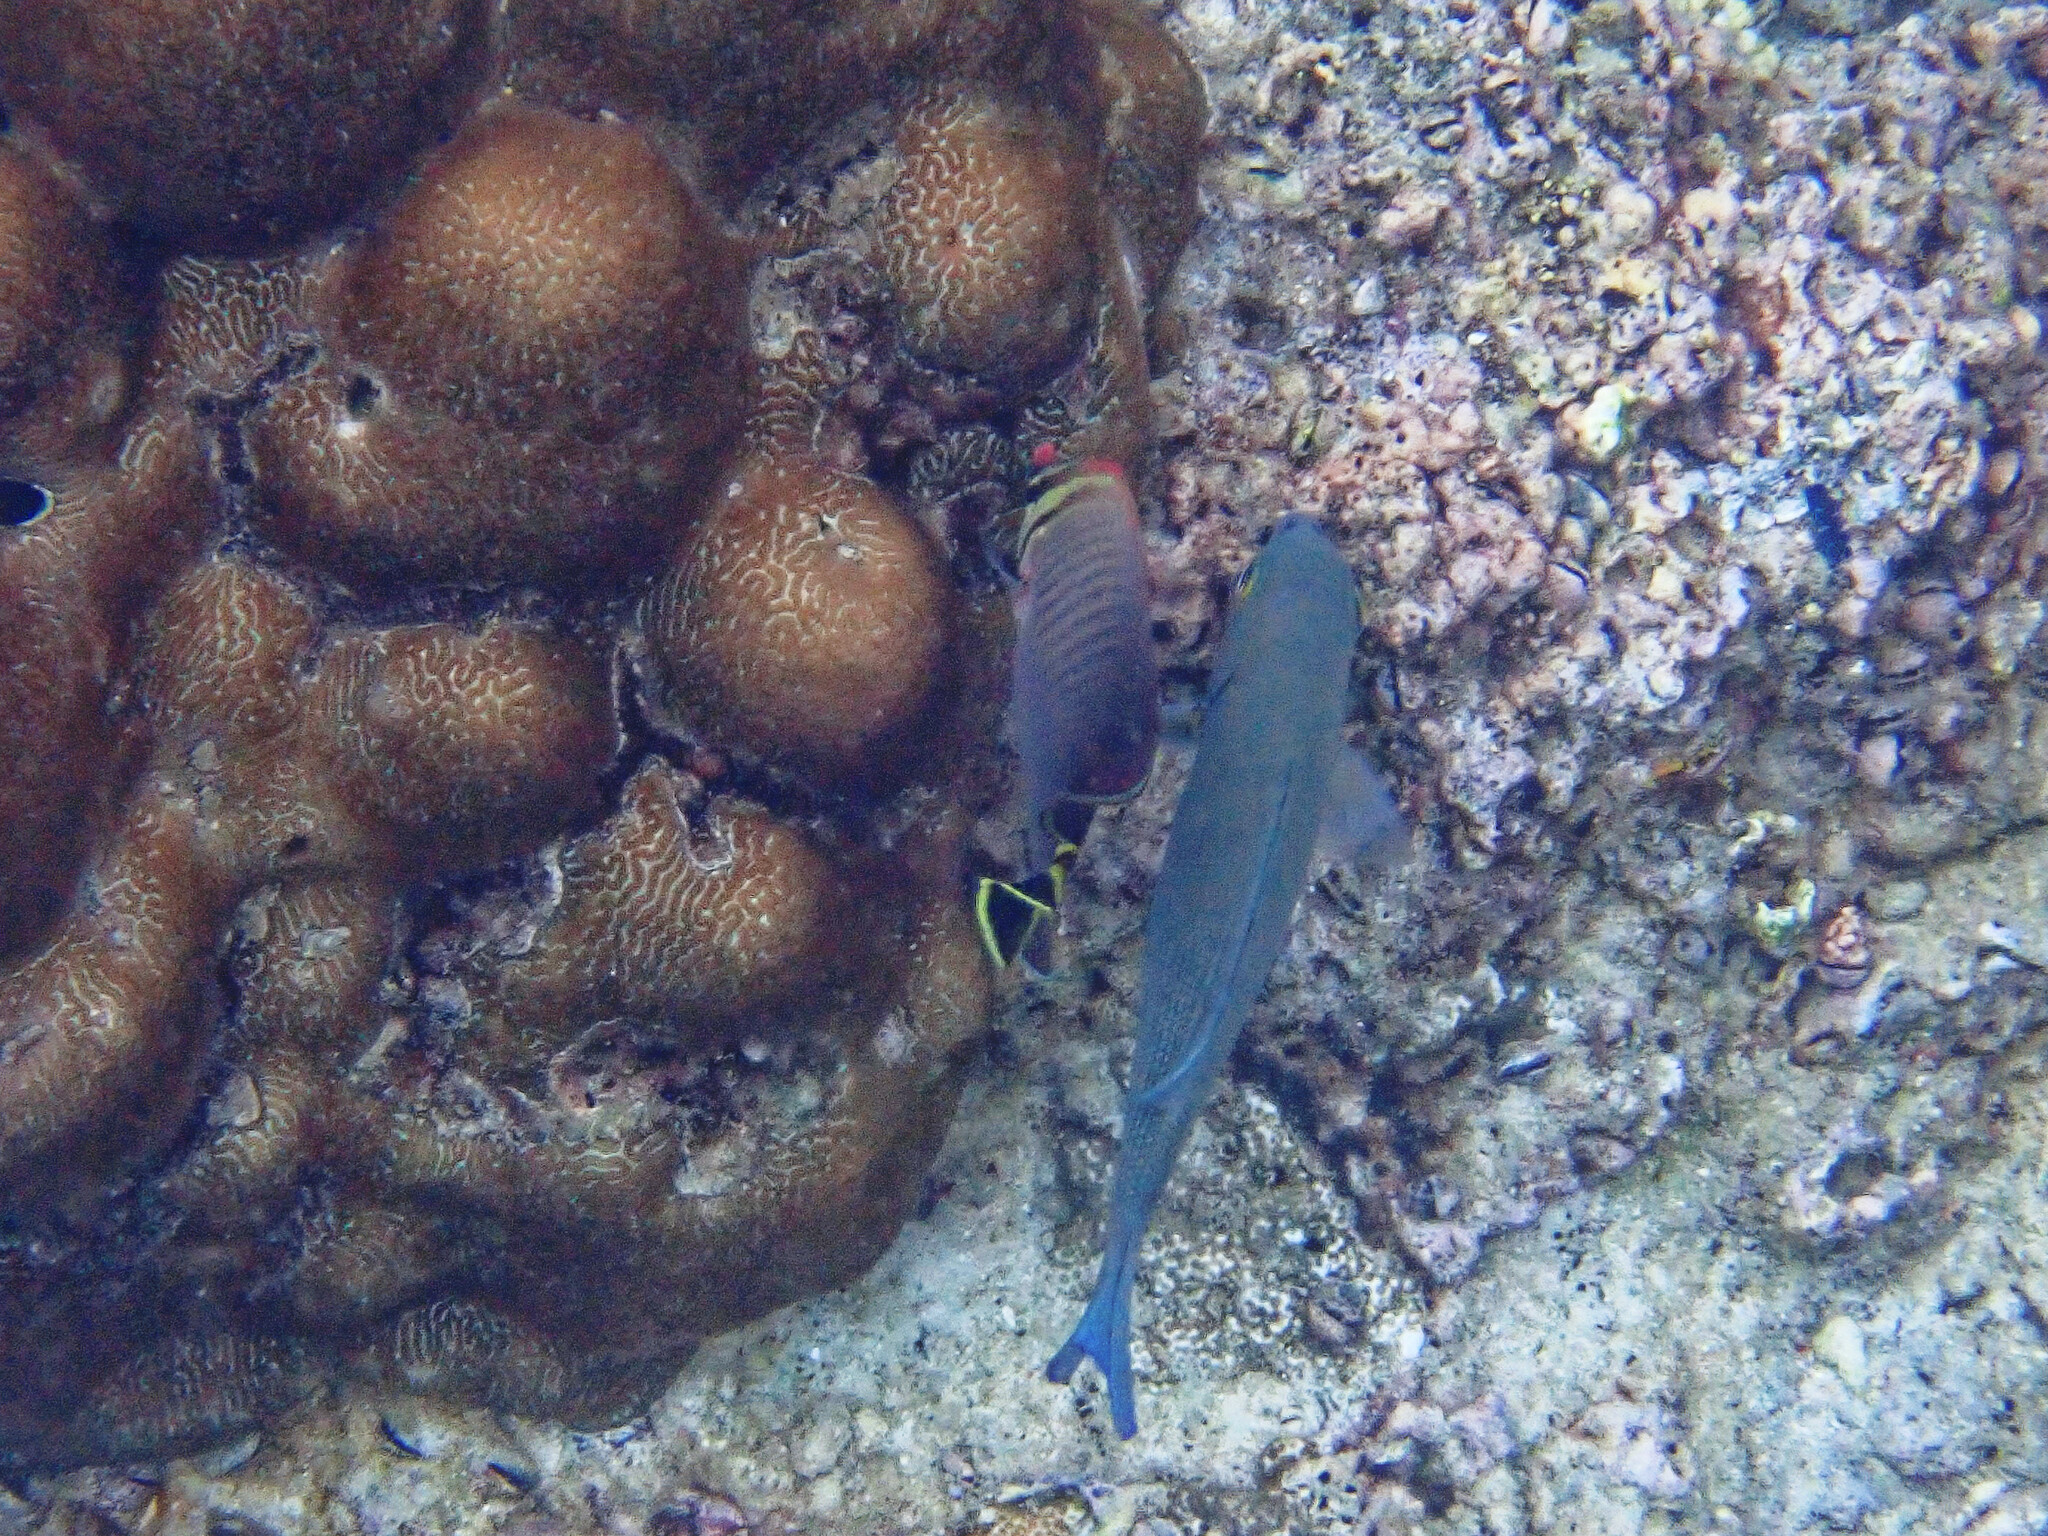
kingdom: Animalia
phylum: Chordata
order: Perciformes
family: Chaetodontidae
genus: Chaetodon
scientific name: Chaetodon triangulum
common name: Triangular butterflyfish
